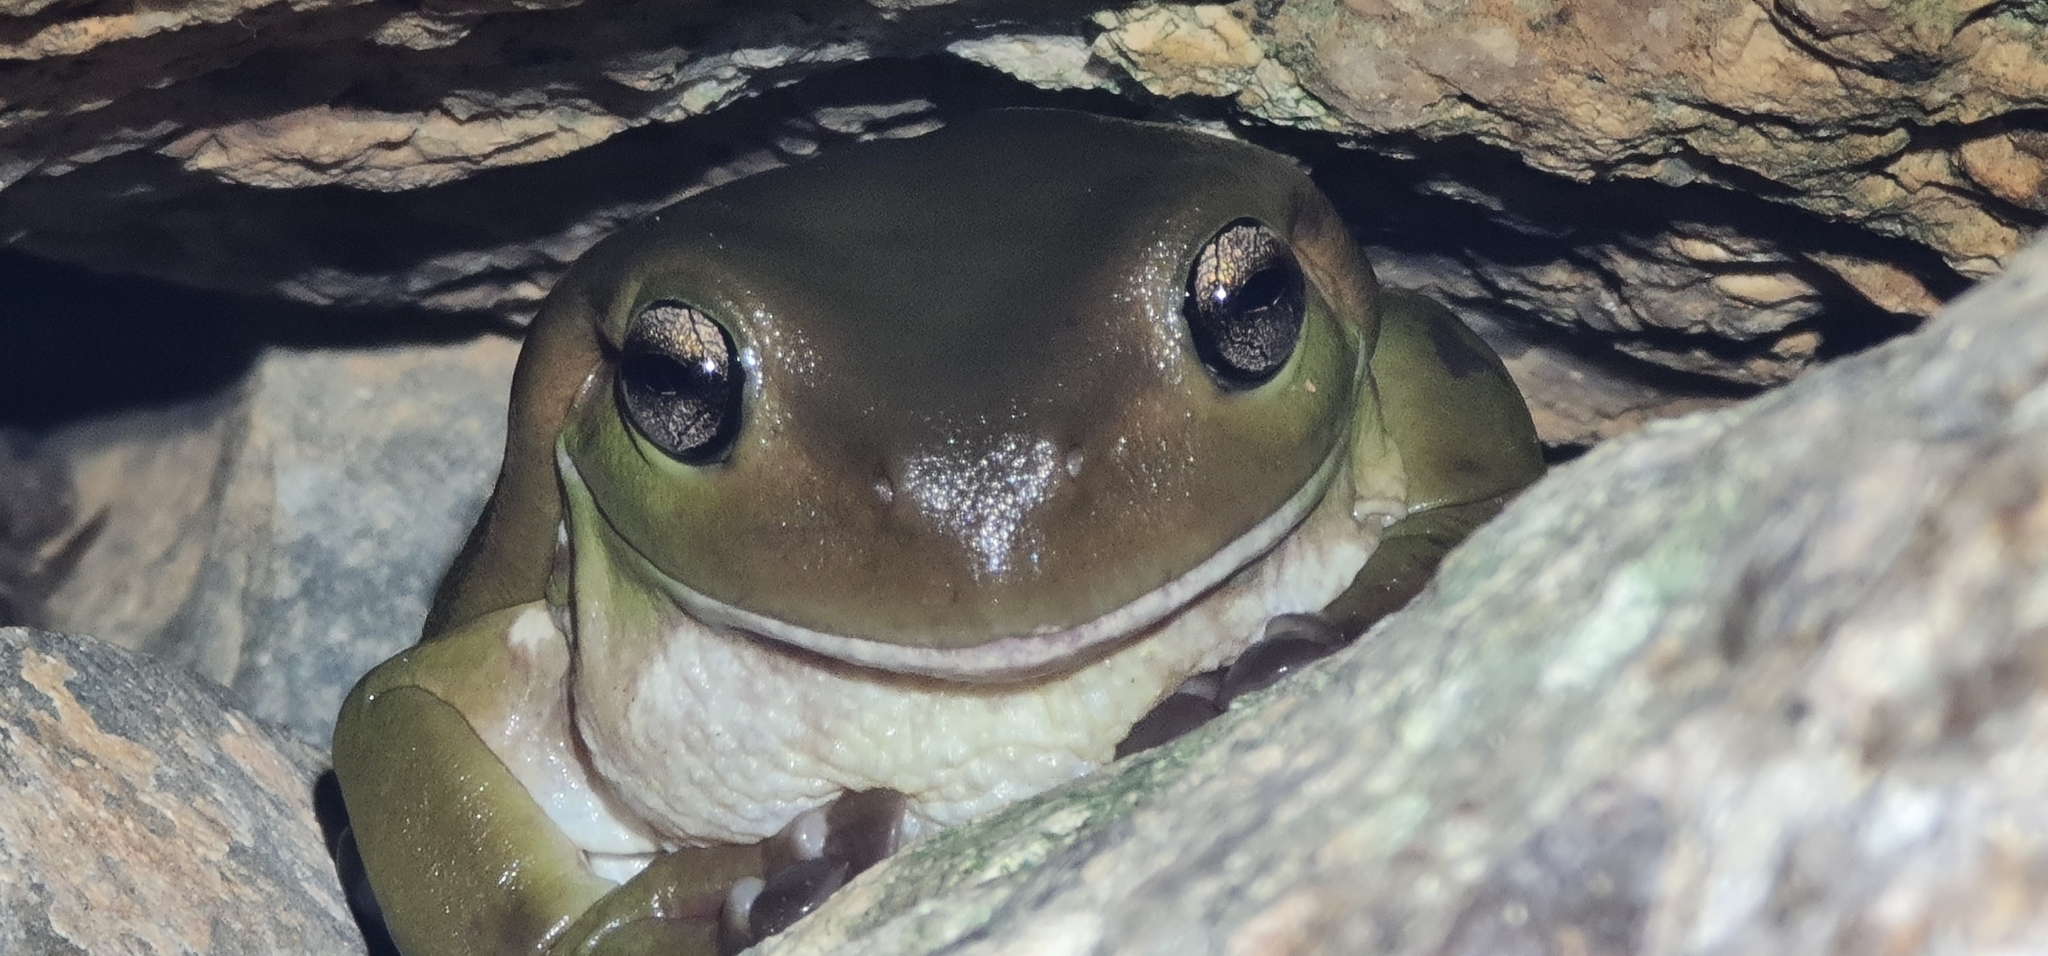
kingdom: Animalia
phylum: Chordata
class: Amphibia
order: Anura
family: Pelodryadidae
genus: Ranoidea
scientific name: Ranoidea caerulea
